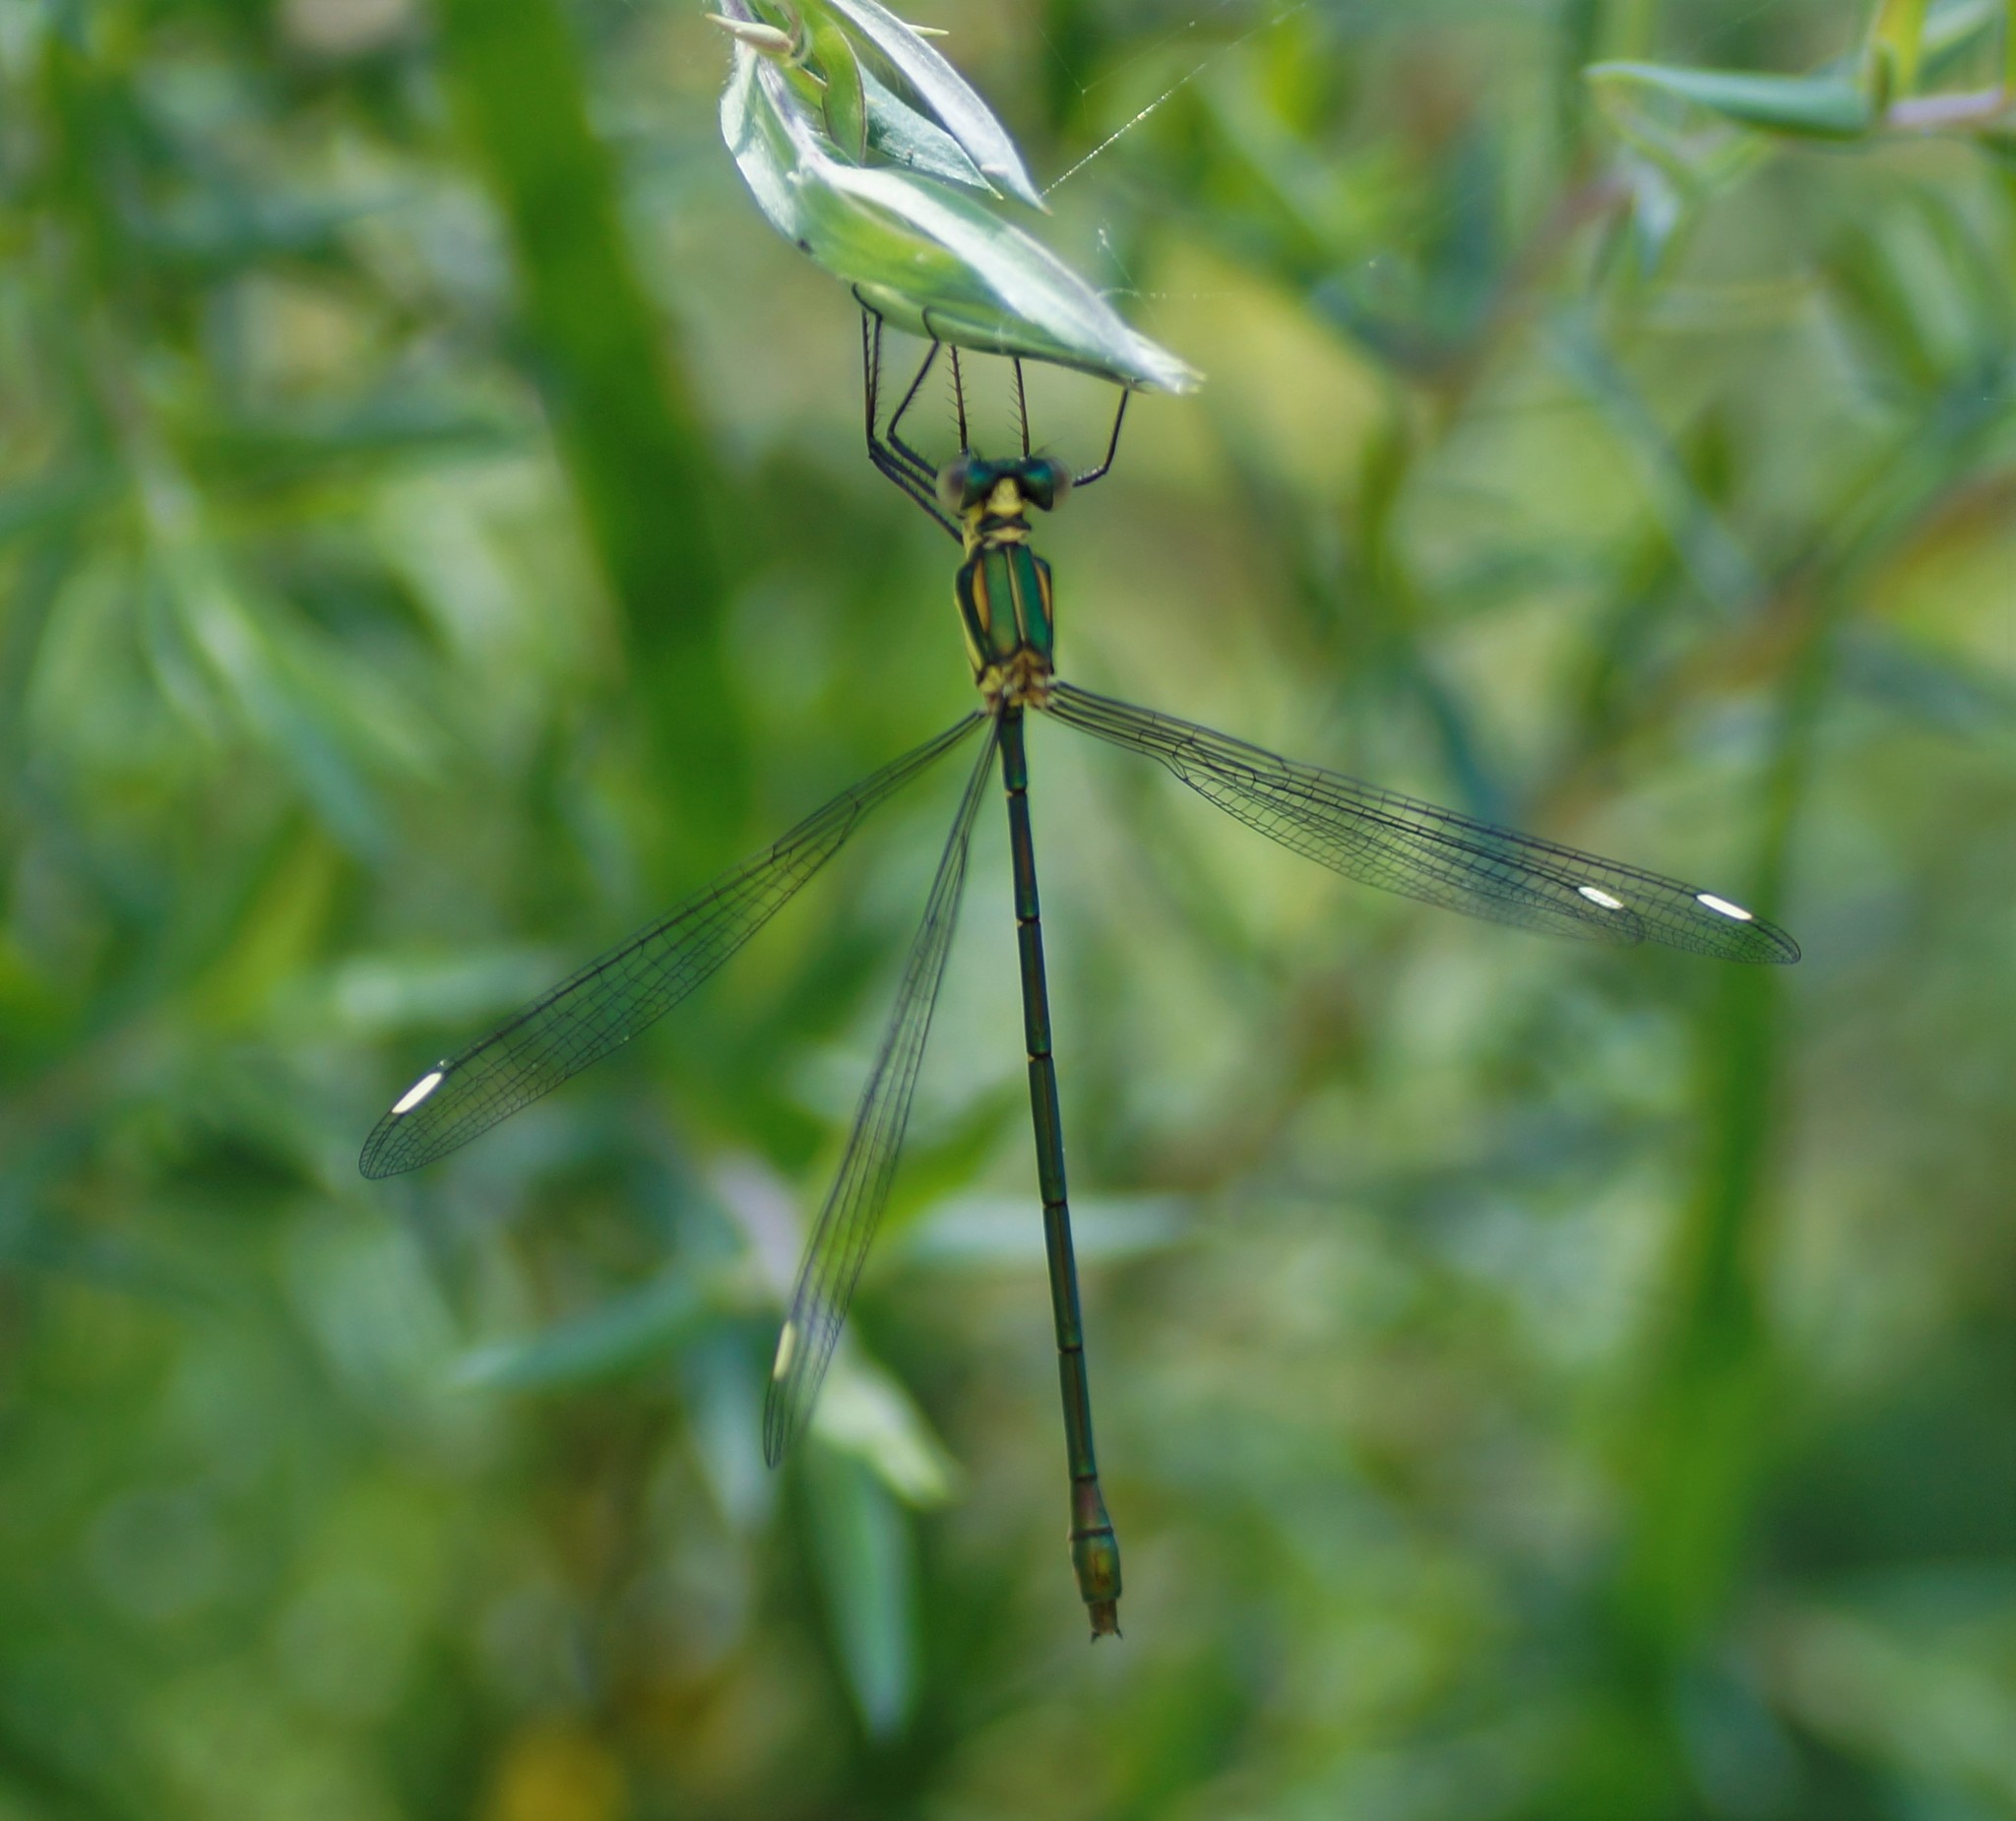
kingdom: Animalia
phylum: Arthropoda
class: Insecta
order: Odonata
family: Synlestidae
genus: Synlestes
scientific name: Synlestes weyersii
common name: Bronze needle
